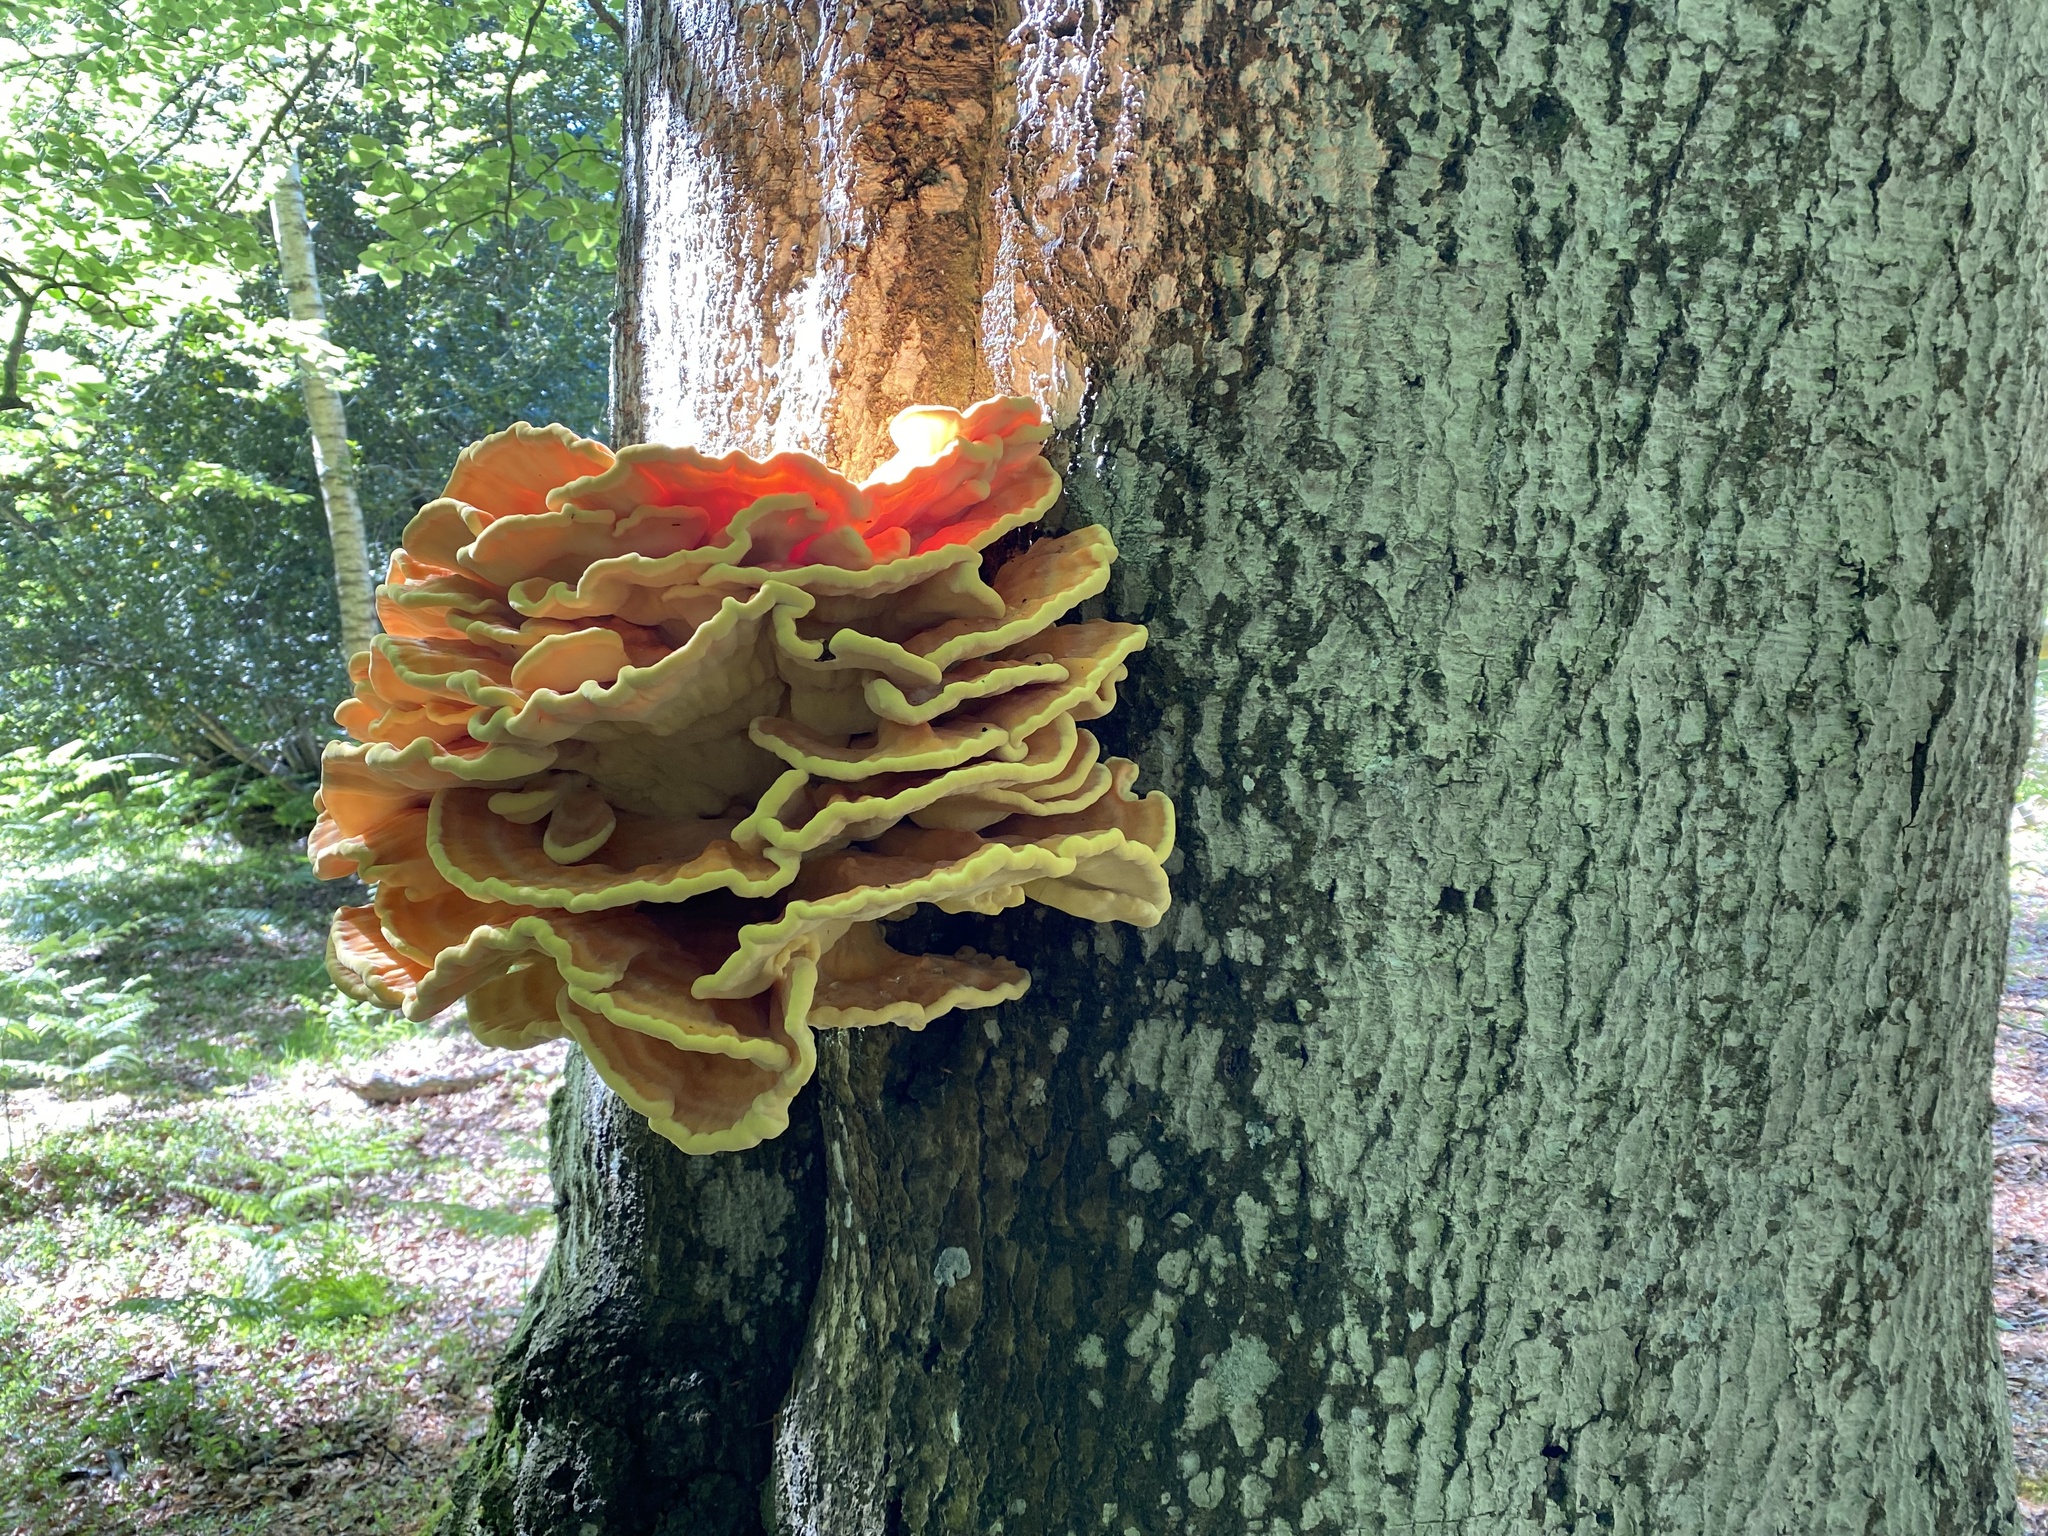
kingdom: Fungi
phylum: Basidiomycota
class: Agaricomycetes
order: Polyporales
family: Laetiporaceae
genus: Laetiporus
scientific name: Laetiporus sulphureus
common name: Chicken of the woods
